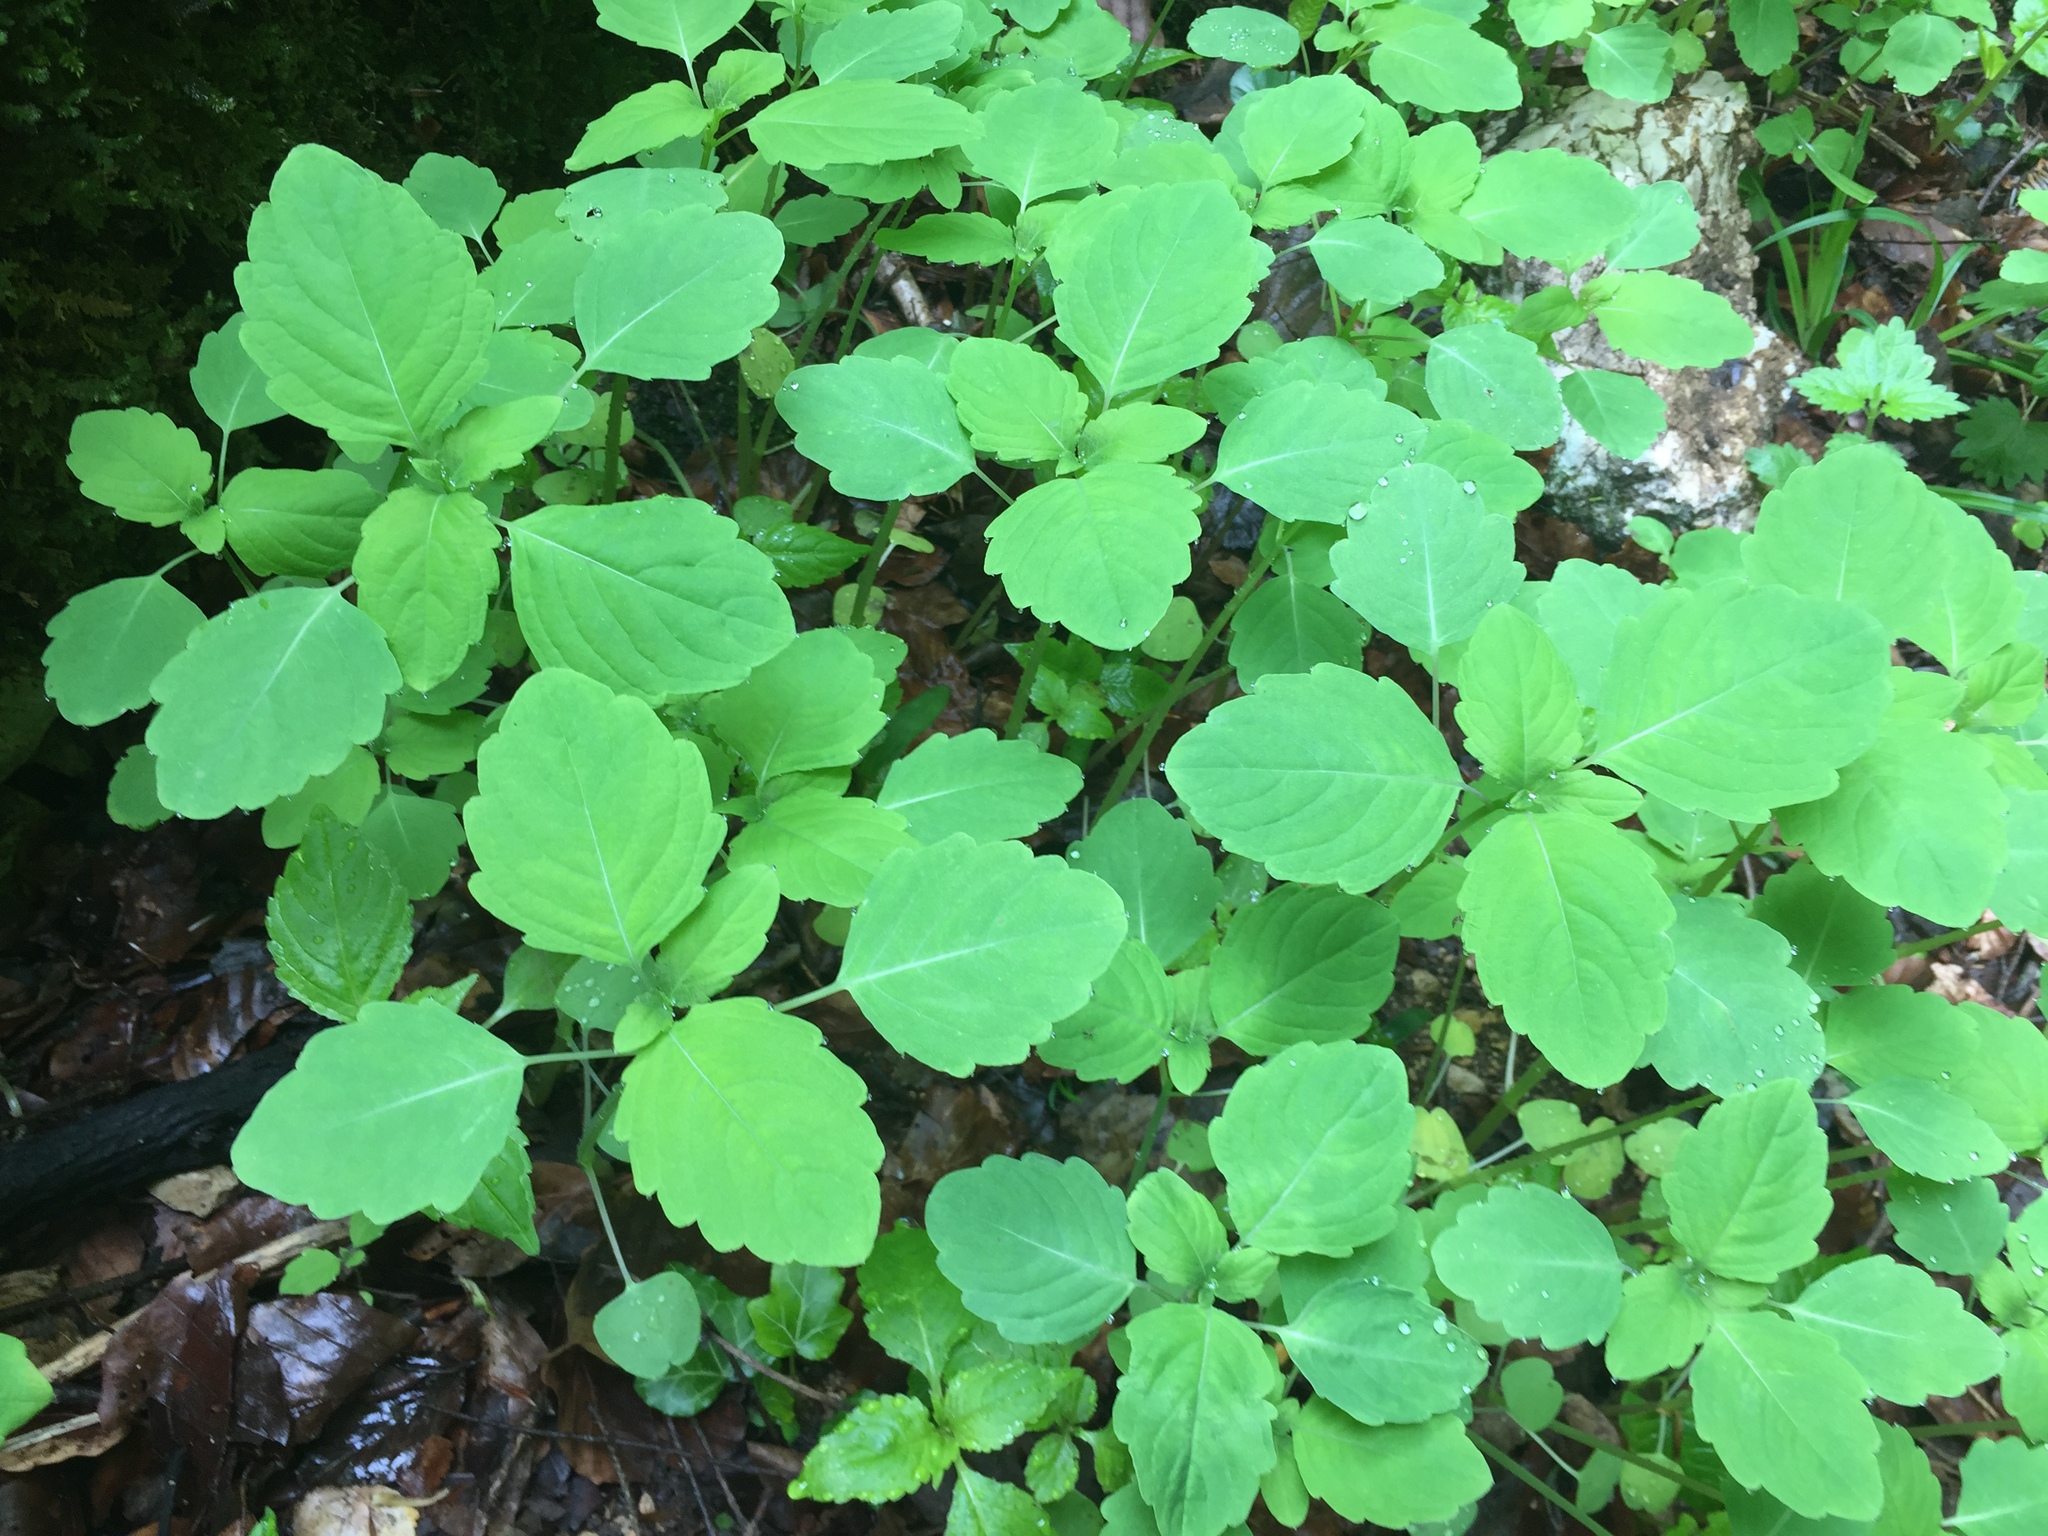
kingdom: Plantae
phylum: Tracheophyta
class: Magnoliopsida
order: Ericales
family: Balsaminaceae
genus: Impatiens
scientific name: Impatiens noli-tangere
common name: Touch-me-not balsam
